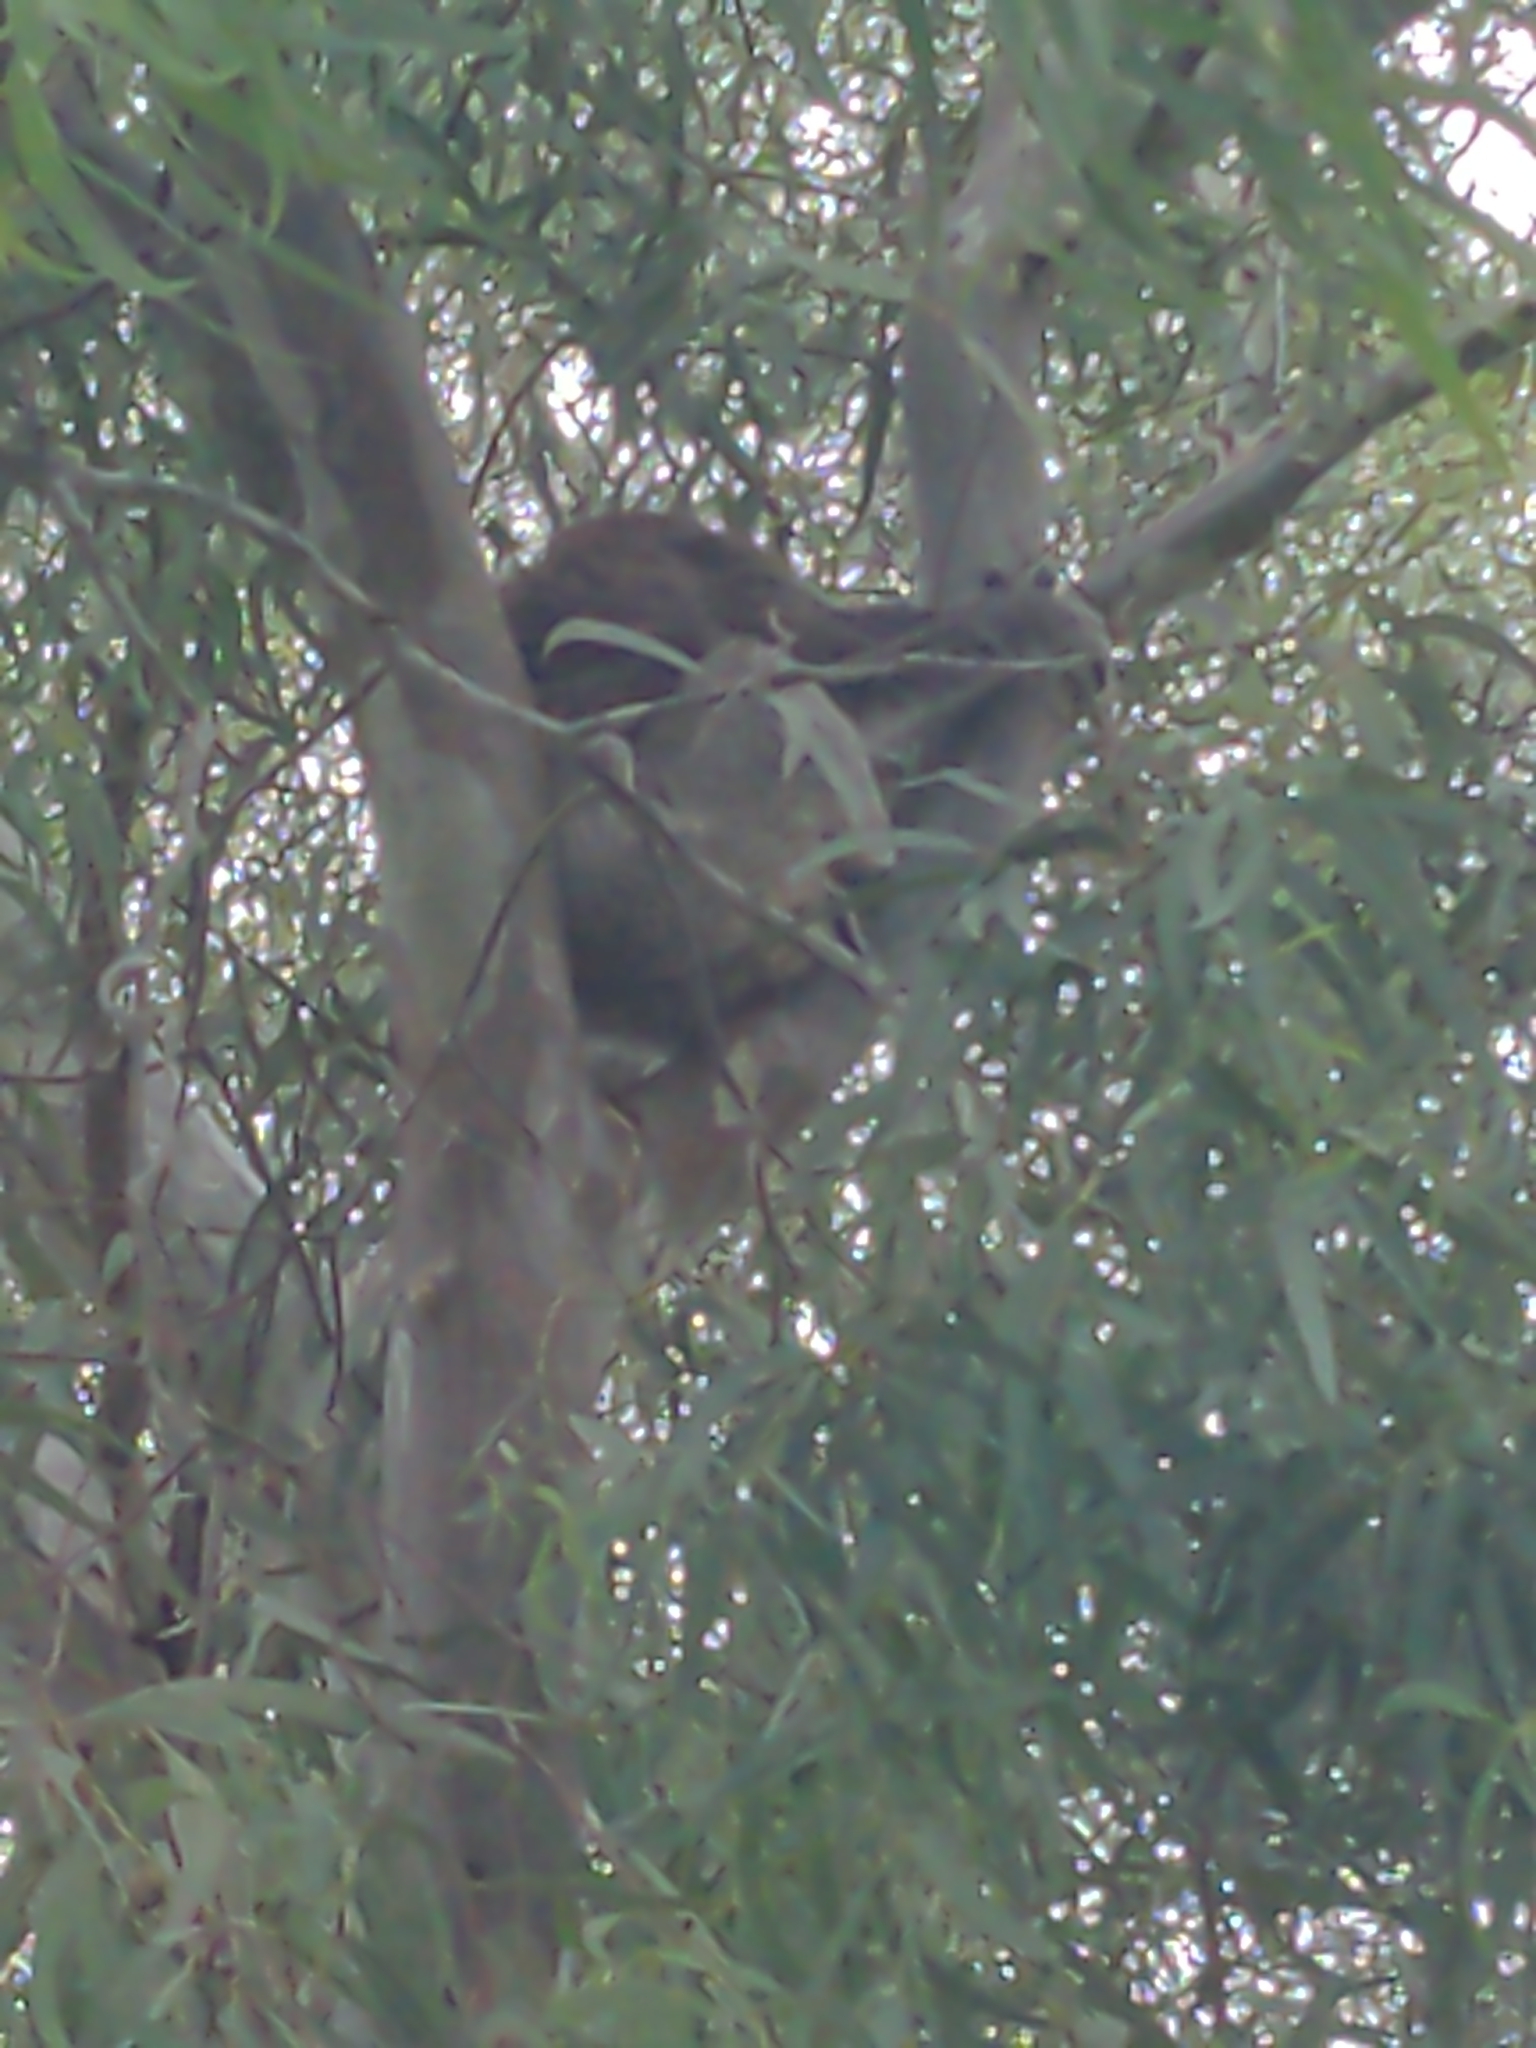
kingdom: Animalia
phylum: Chordata
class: Mammalia
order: Diprotodontia
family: Phascolarctidae
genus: Phascolarctos
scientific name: Phascolarctos cinereus
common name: Koala
